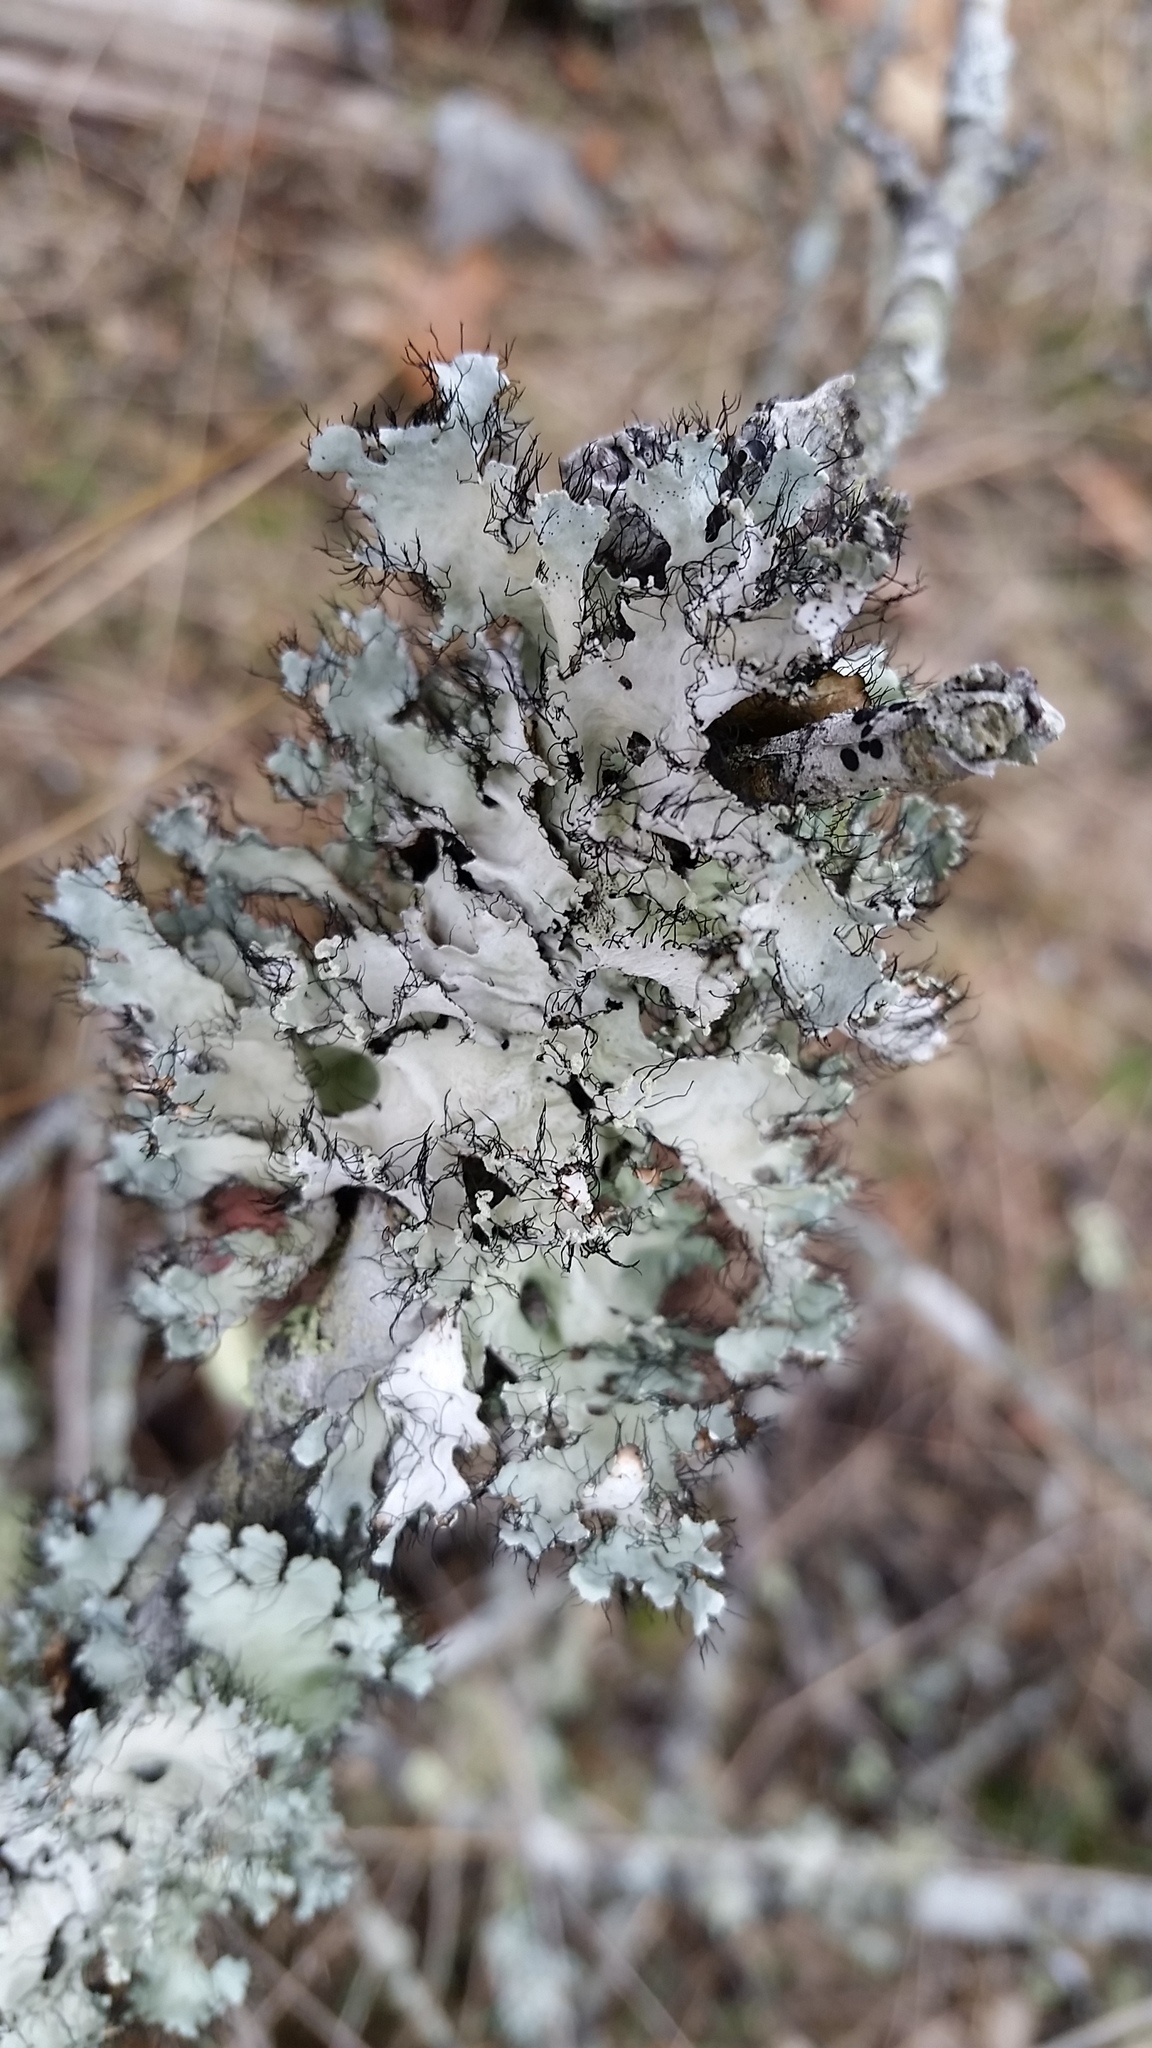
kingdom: Fungi
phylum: Ascomycota
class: Lecanoromycetes
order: Lecanorales
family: Parmeliaceae
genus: Parmotrema
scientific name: Parmotrema hypotropum
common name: Powdered ruffle lichen
